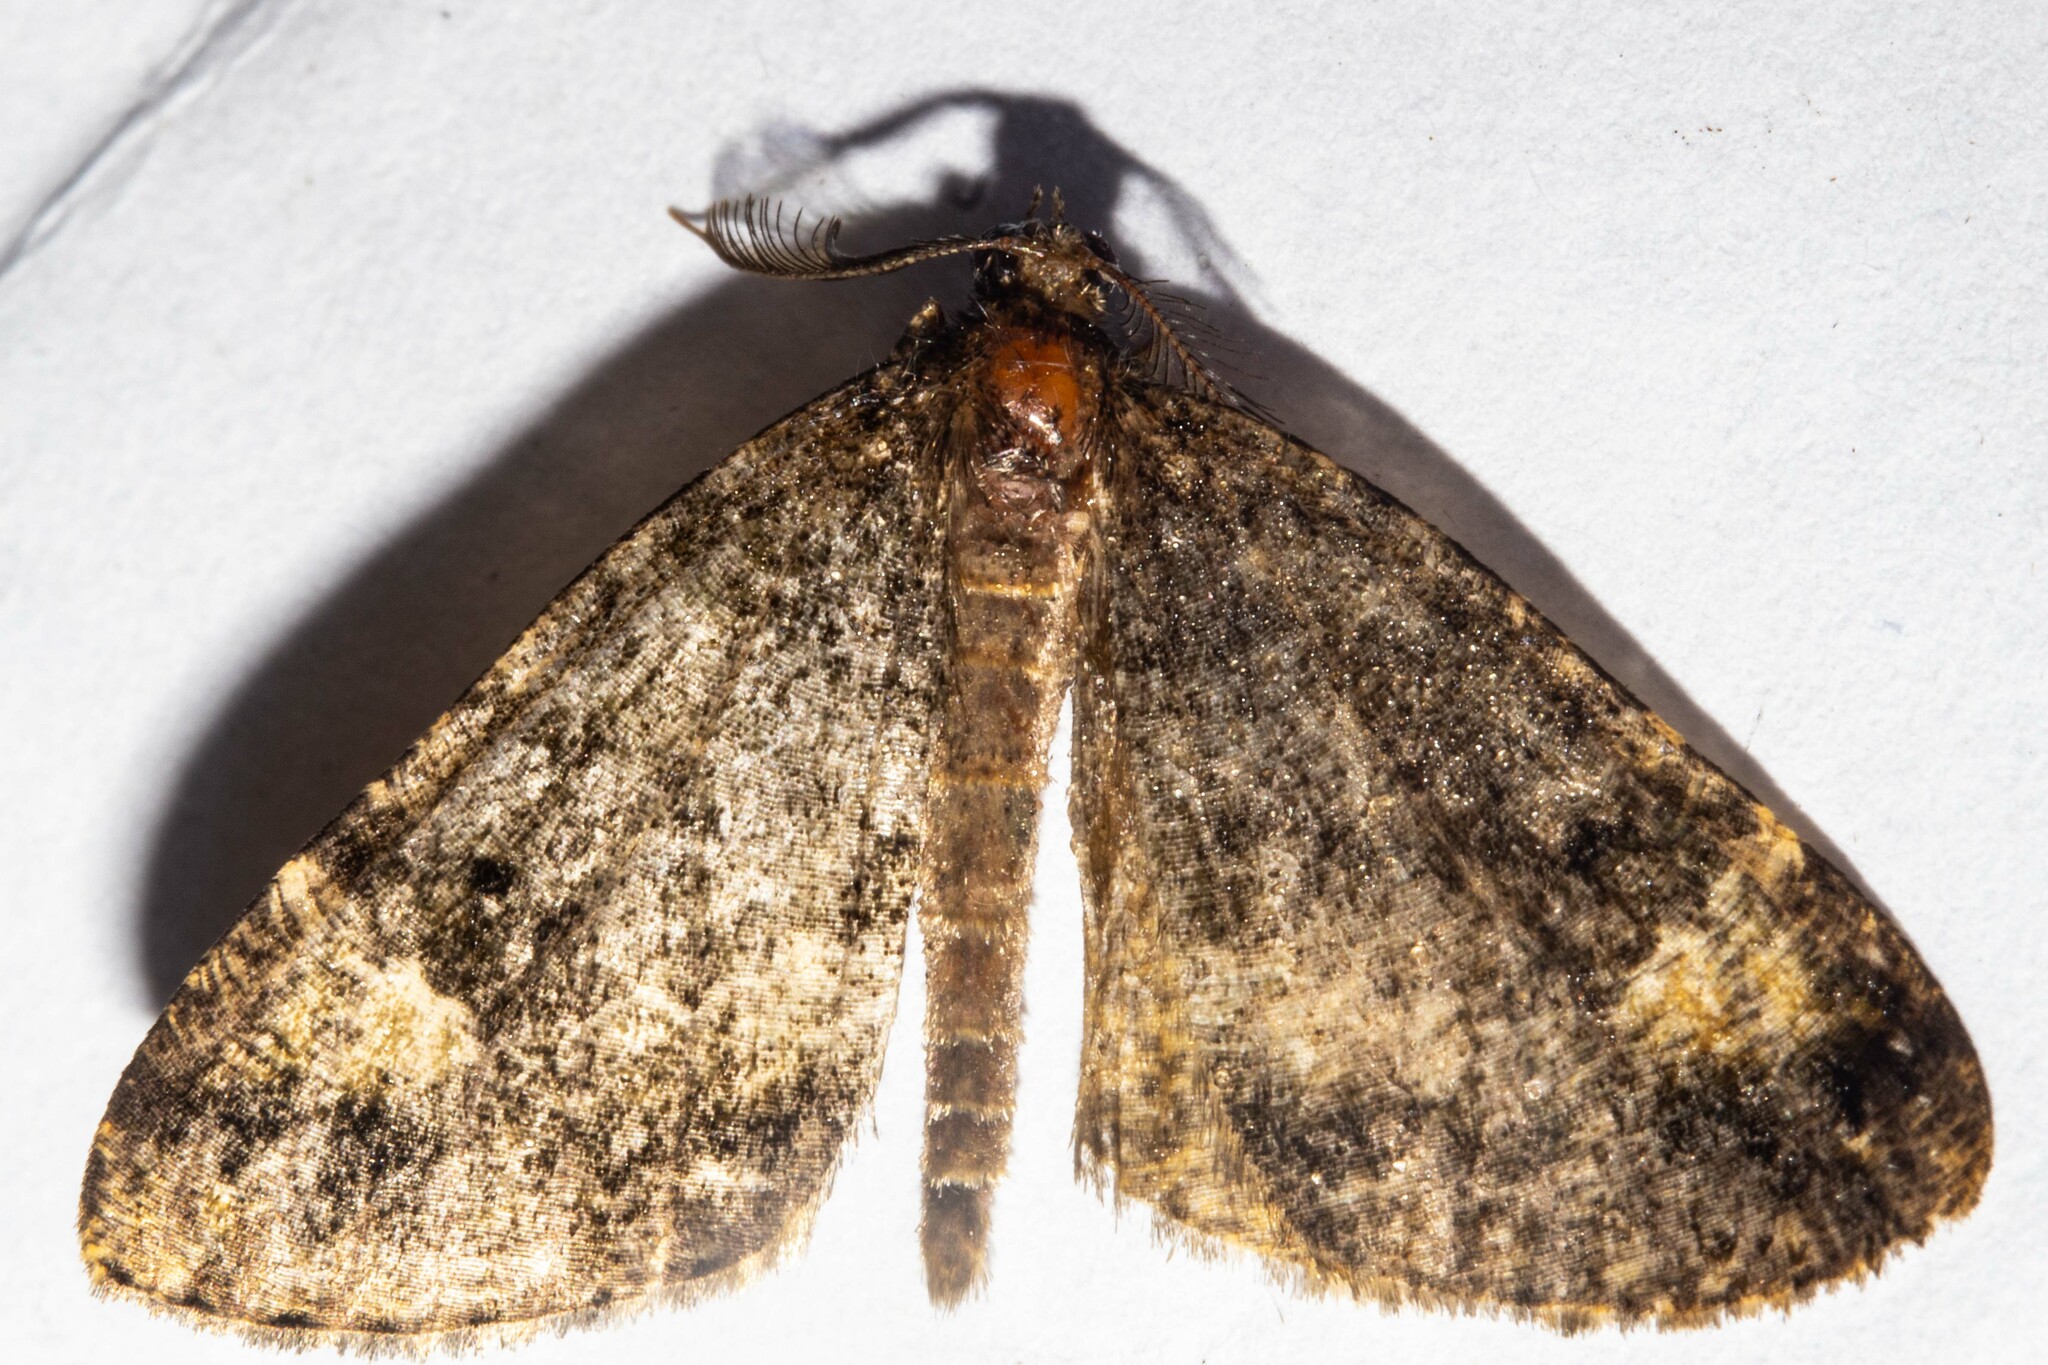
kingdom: Animalia
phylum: Arthropoda
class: Insecta
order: Lepidoptera
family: Geometridae
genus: Pseudocoremia
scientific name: Pseudocoremia productata
